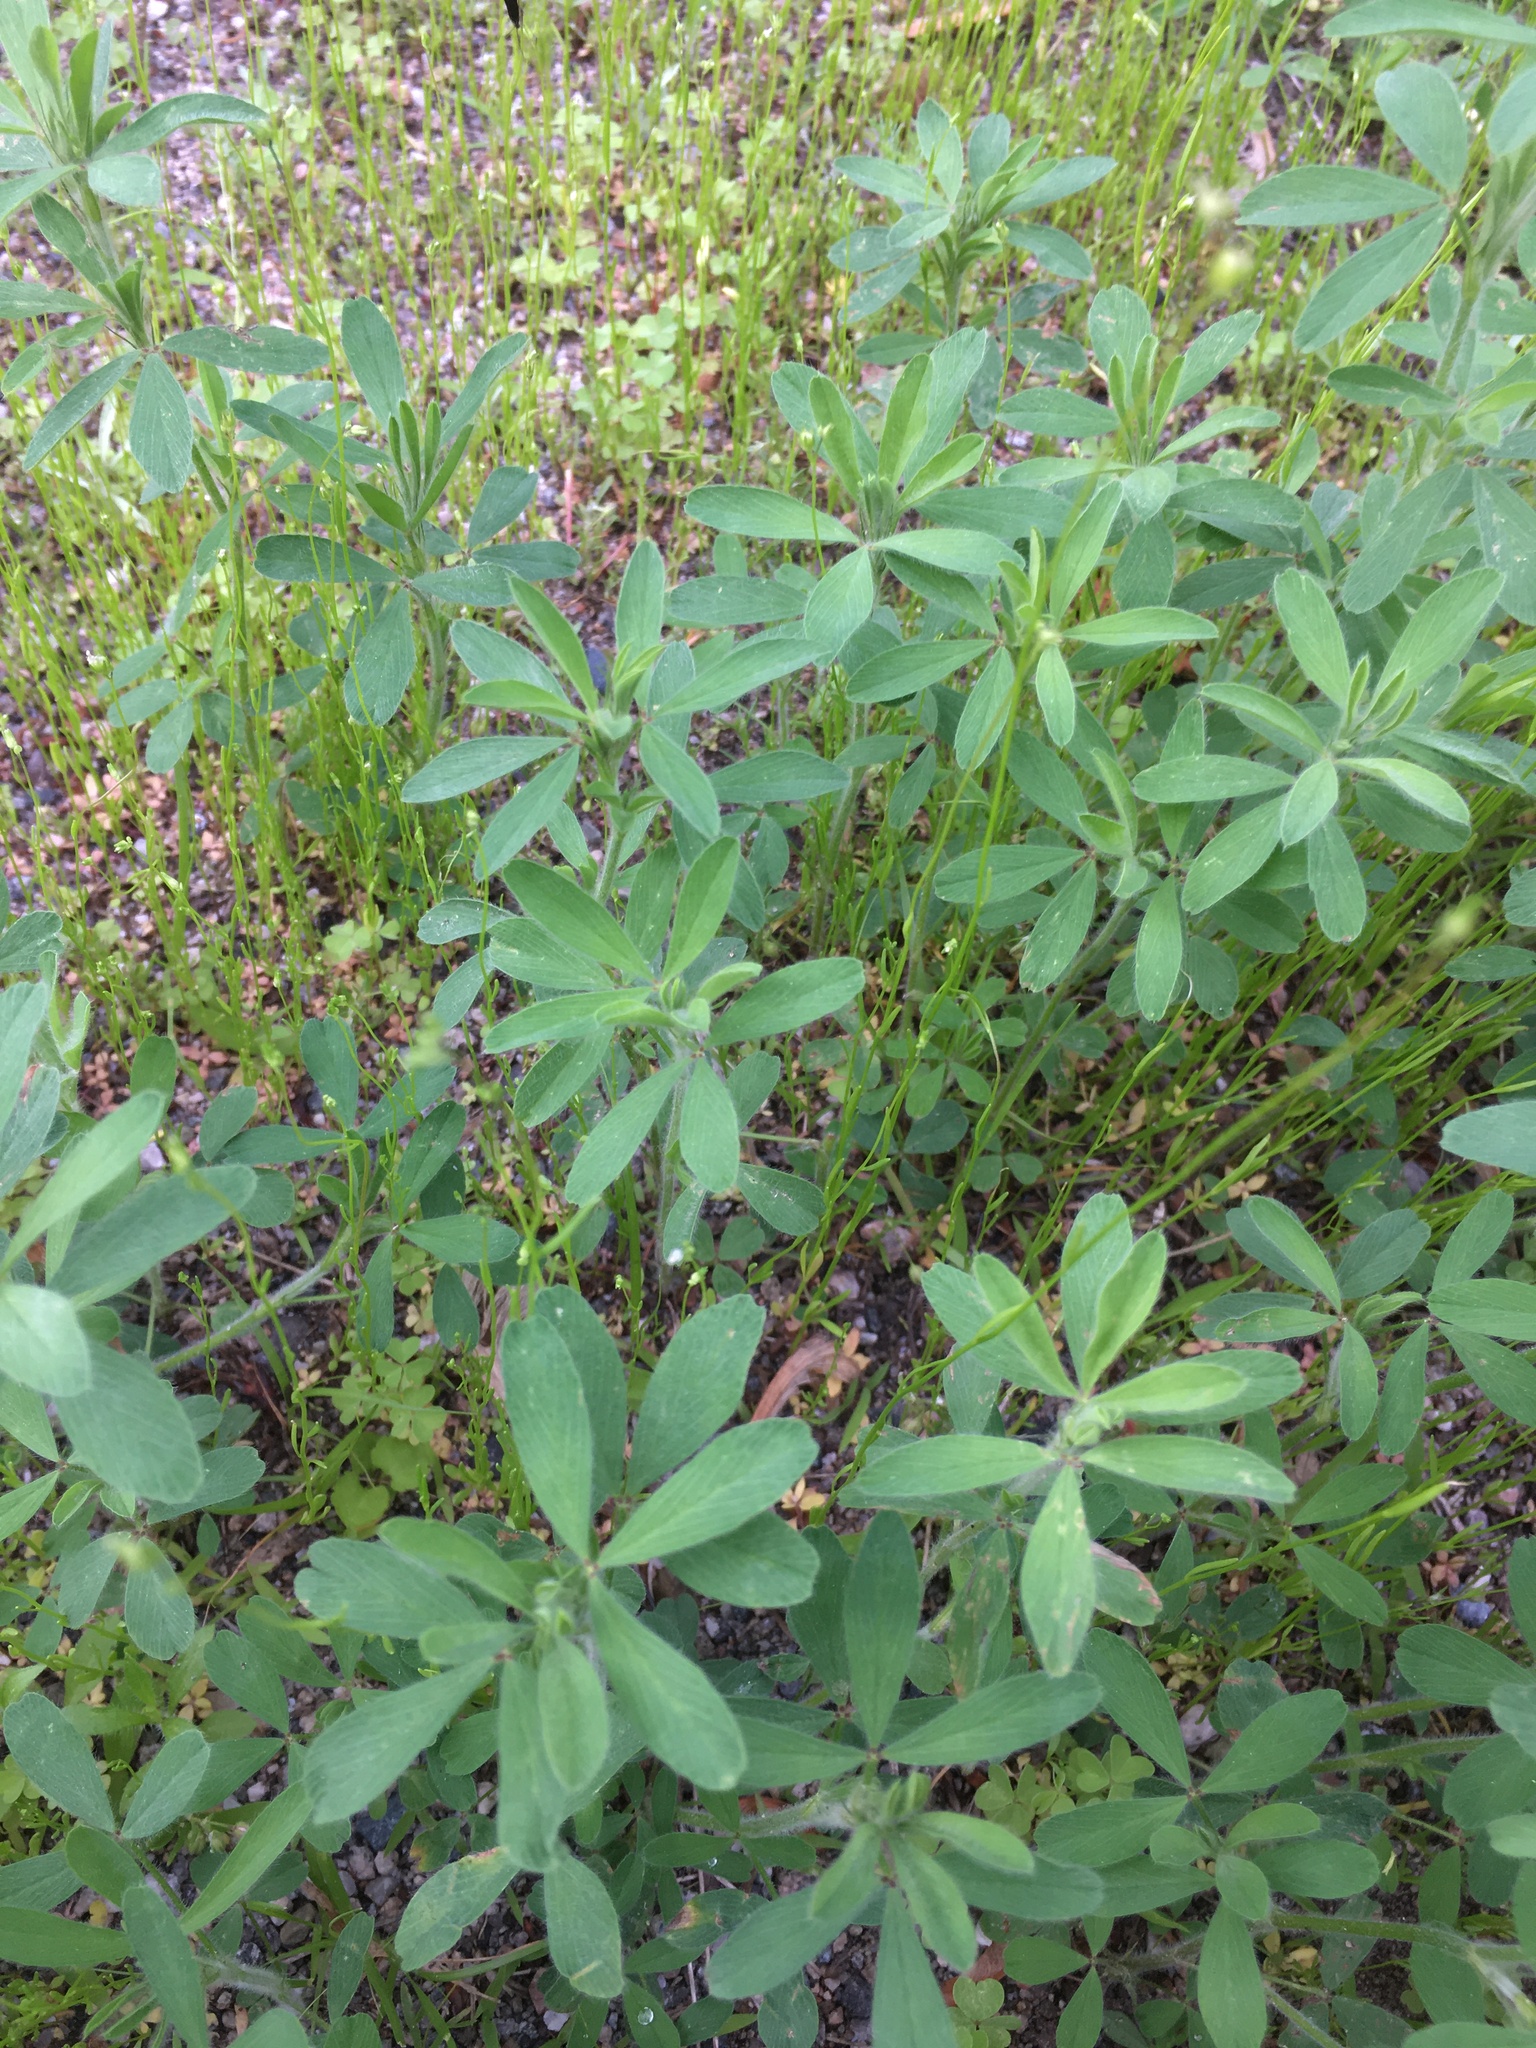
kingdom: Plantae
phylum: Tracheophyta
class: Magnoliopsida
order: Fabales
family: Fabaceae
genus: Trifolium
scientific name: Trifolium arvense
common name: Hare's-foot clover
